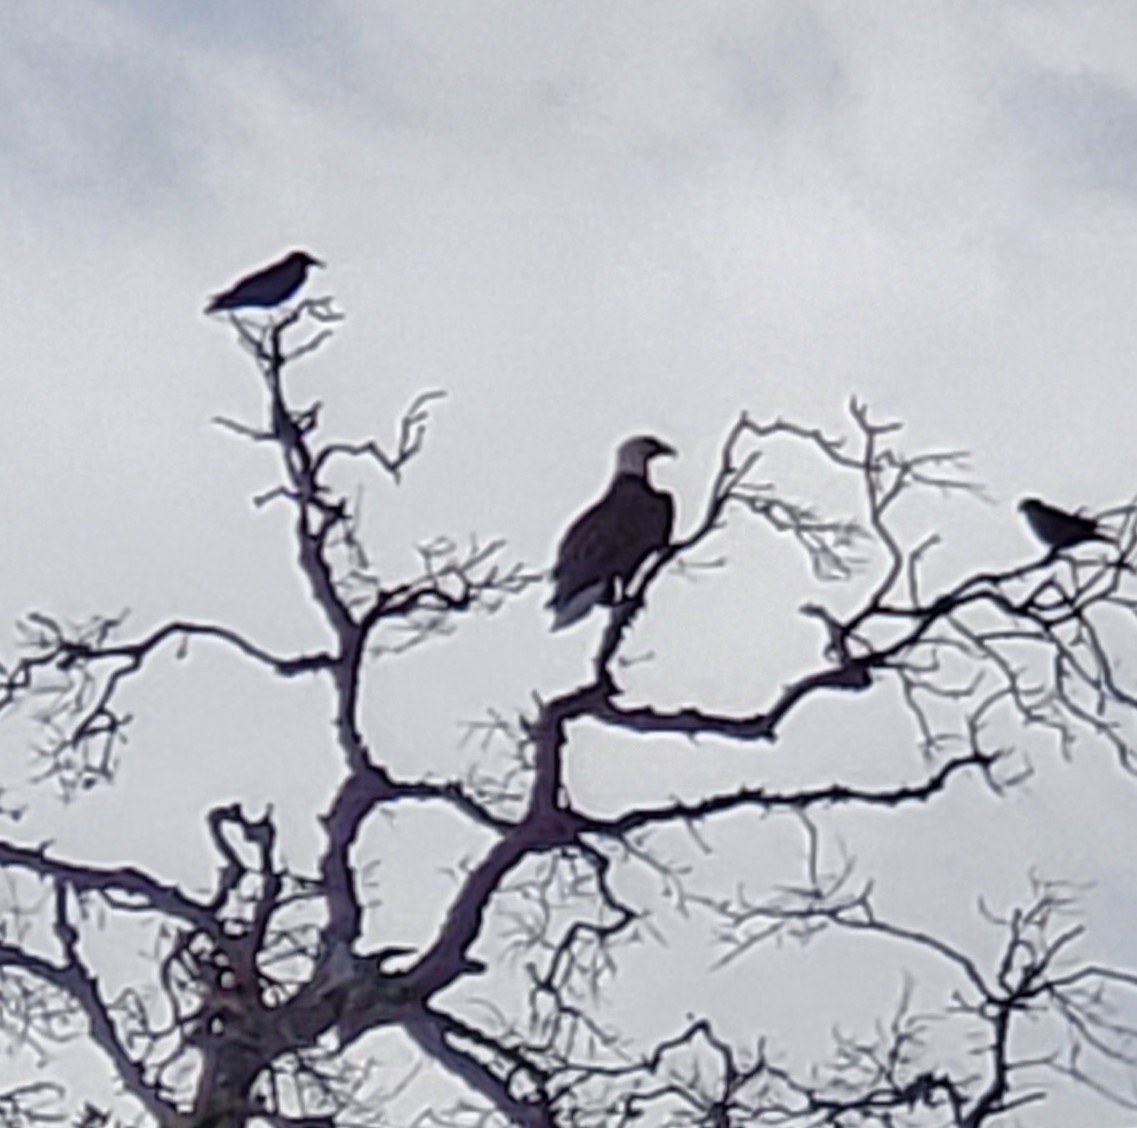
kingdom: Animalia
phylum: Chordata
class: Aves
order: Accipitriformes
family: Accipitridae
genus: Haliaeetus
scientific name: Haliaeetus leucocephalus
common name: Bald eagle
